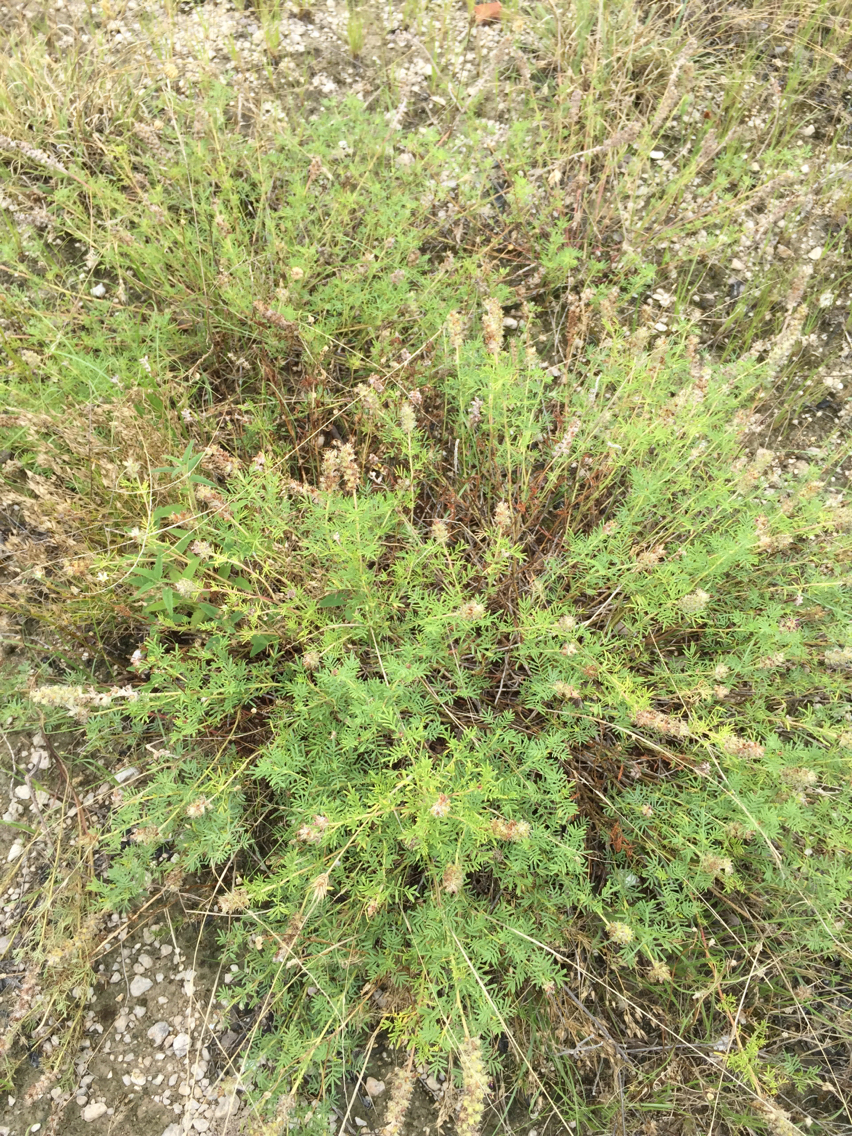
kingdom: Plantae
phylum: Tracheophyta
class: Magnoliopsida
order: Fabales
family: Fabaceae
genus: Dalea
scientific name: Dalea reverchonii
